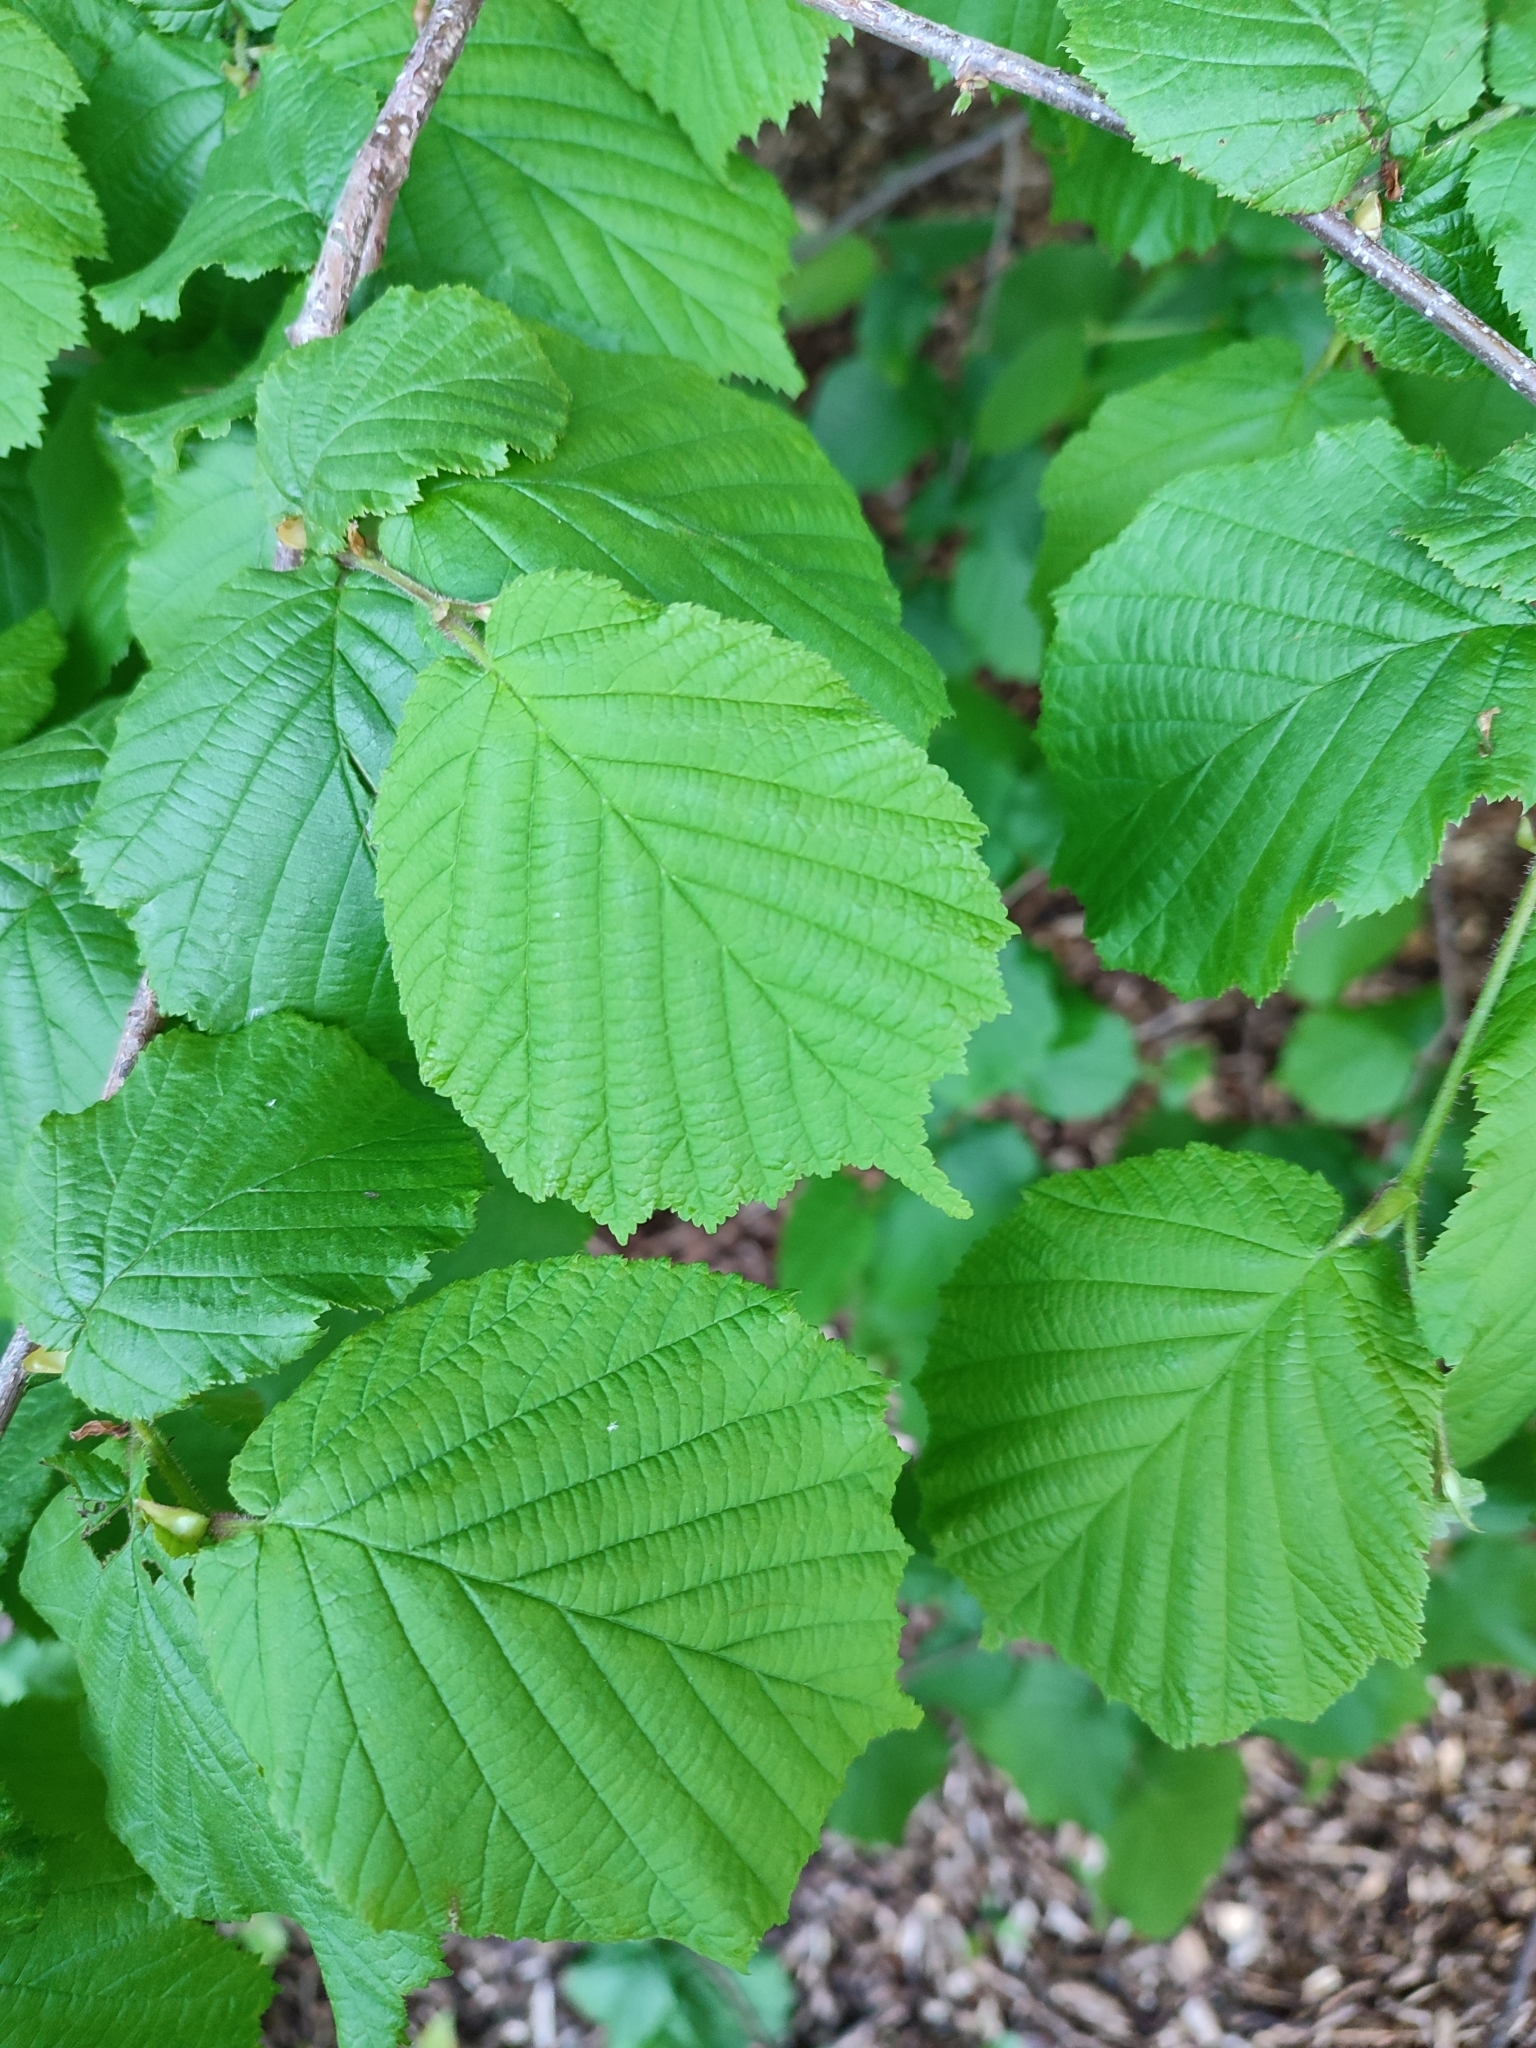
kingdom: Plantae
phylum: Tracheophyta
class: Magnoliopsida
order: Fagales
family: Betulaceae
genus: Corylus
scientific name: Corylus avellana
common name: European hazel
